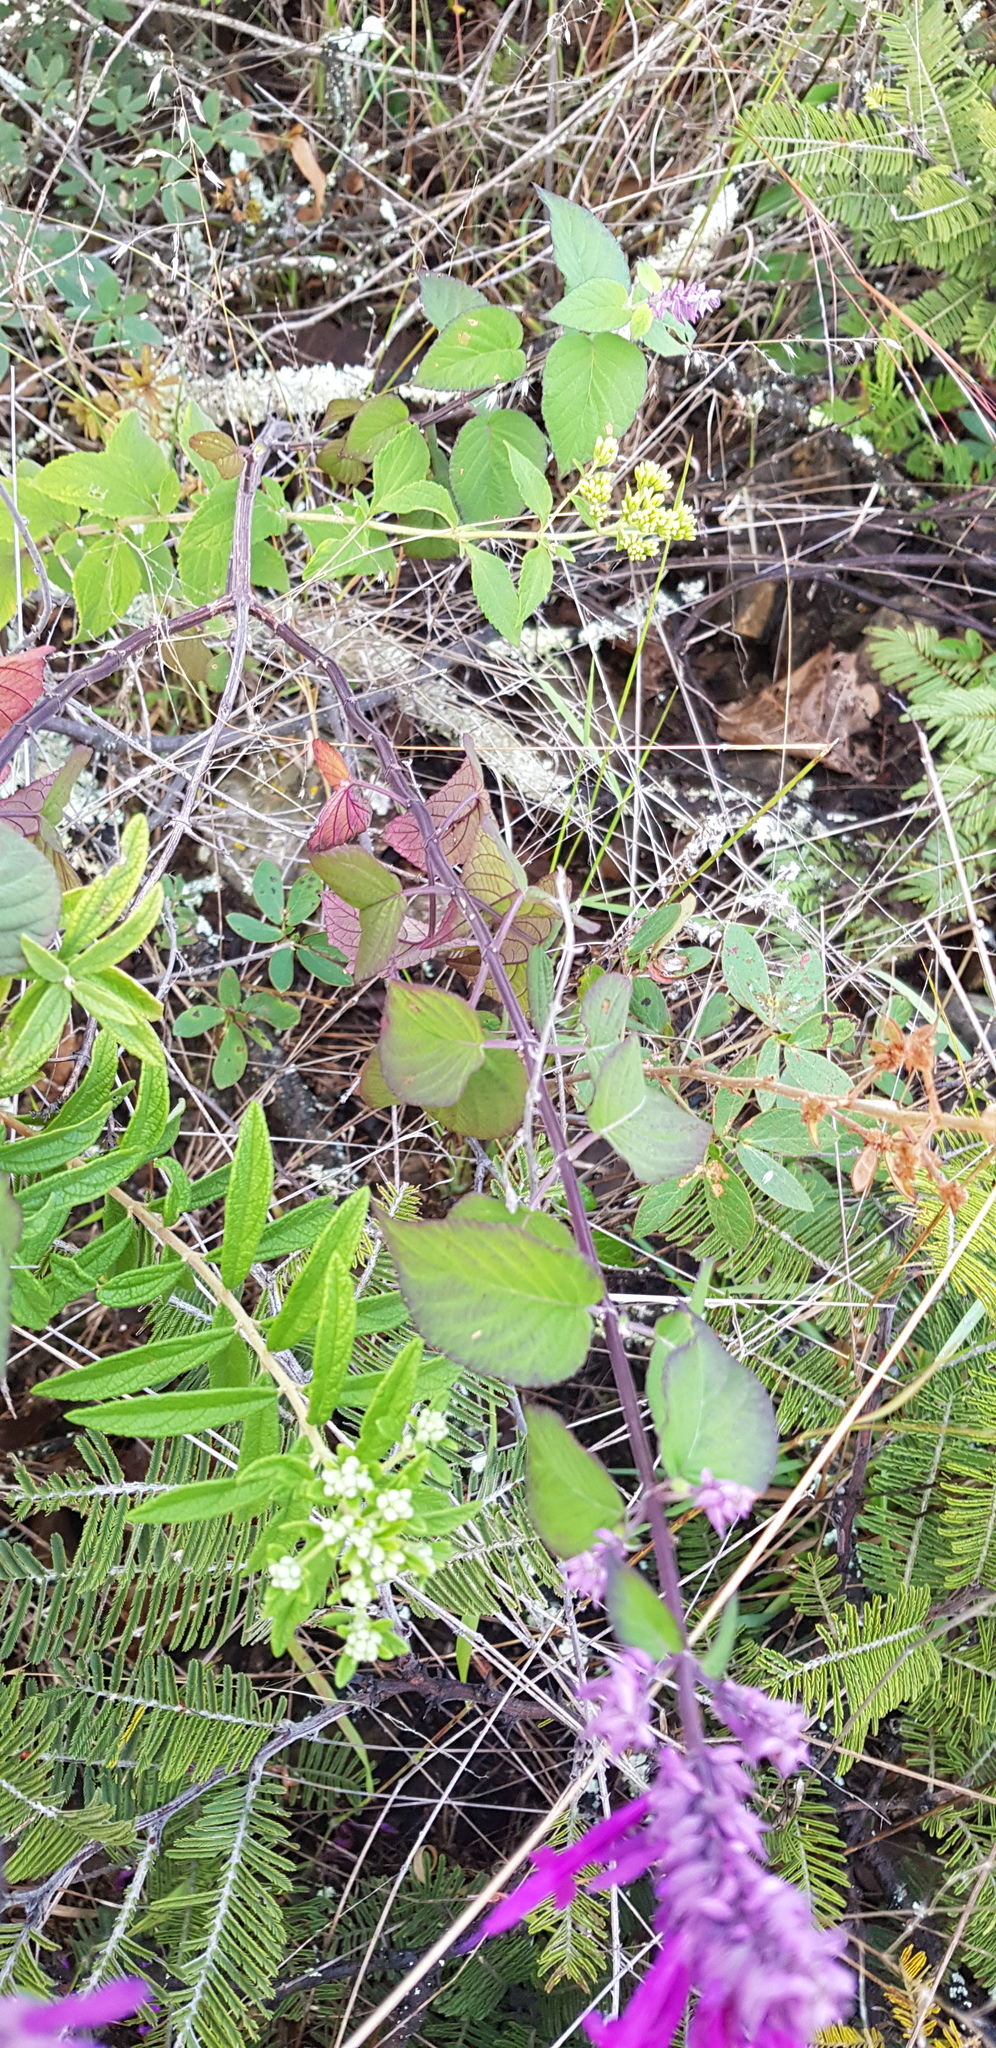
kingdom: Plantae
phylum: Tracheophyta
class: Magnoliopsida
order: Lamiales
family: Lamiaceae
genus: Salvia
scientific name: Salvia purpurea
